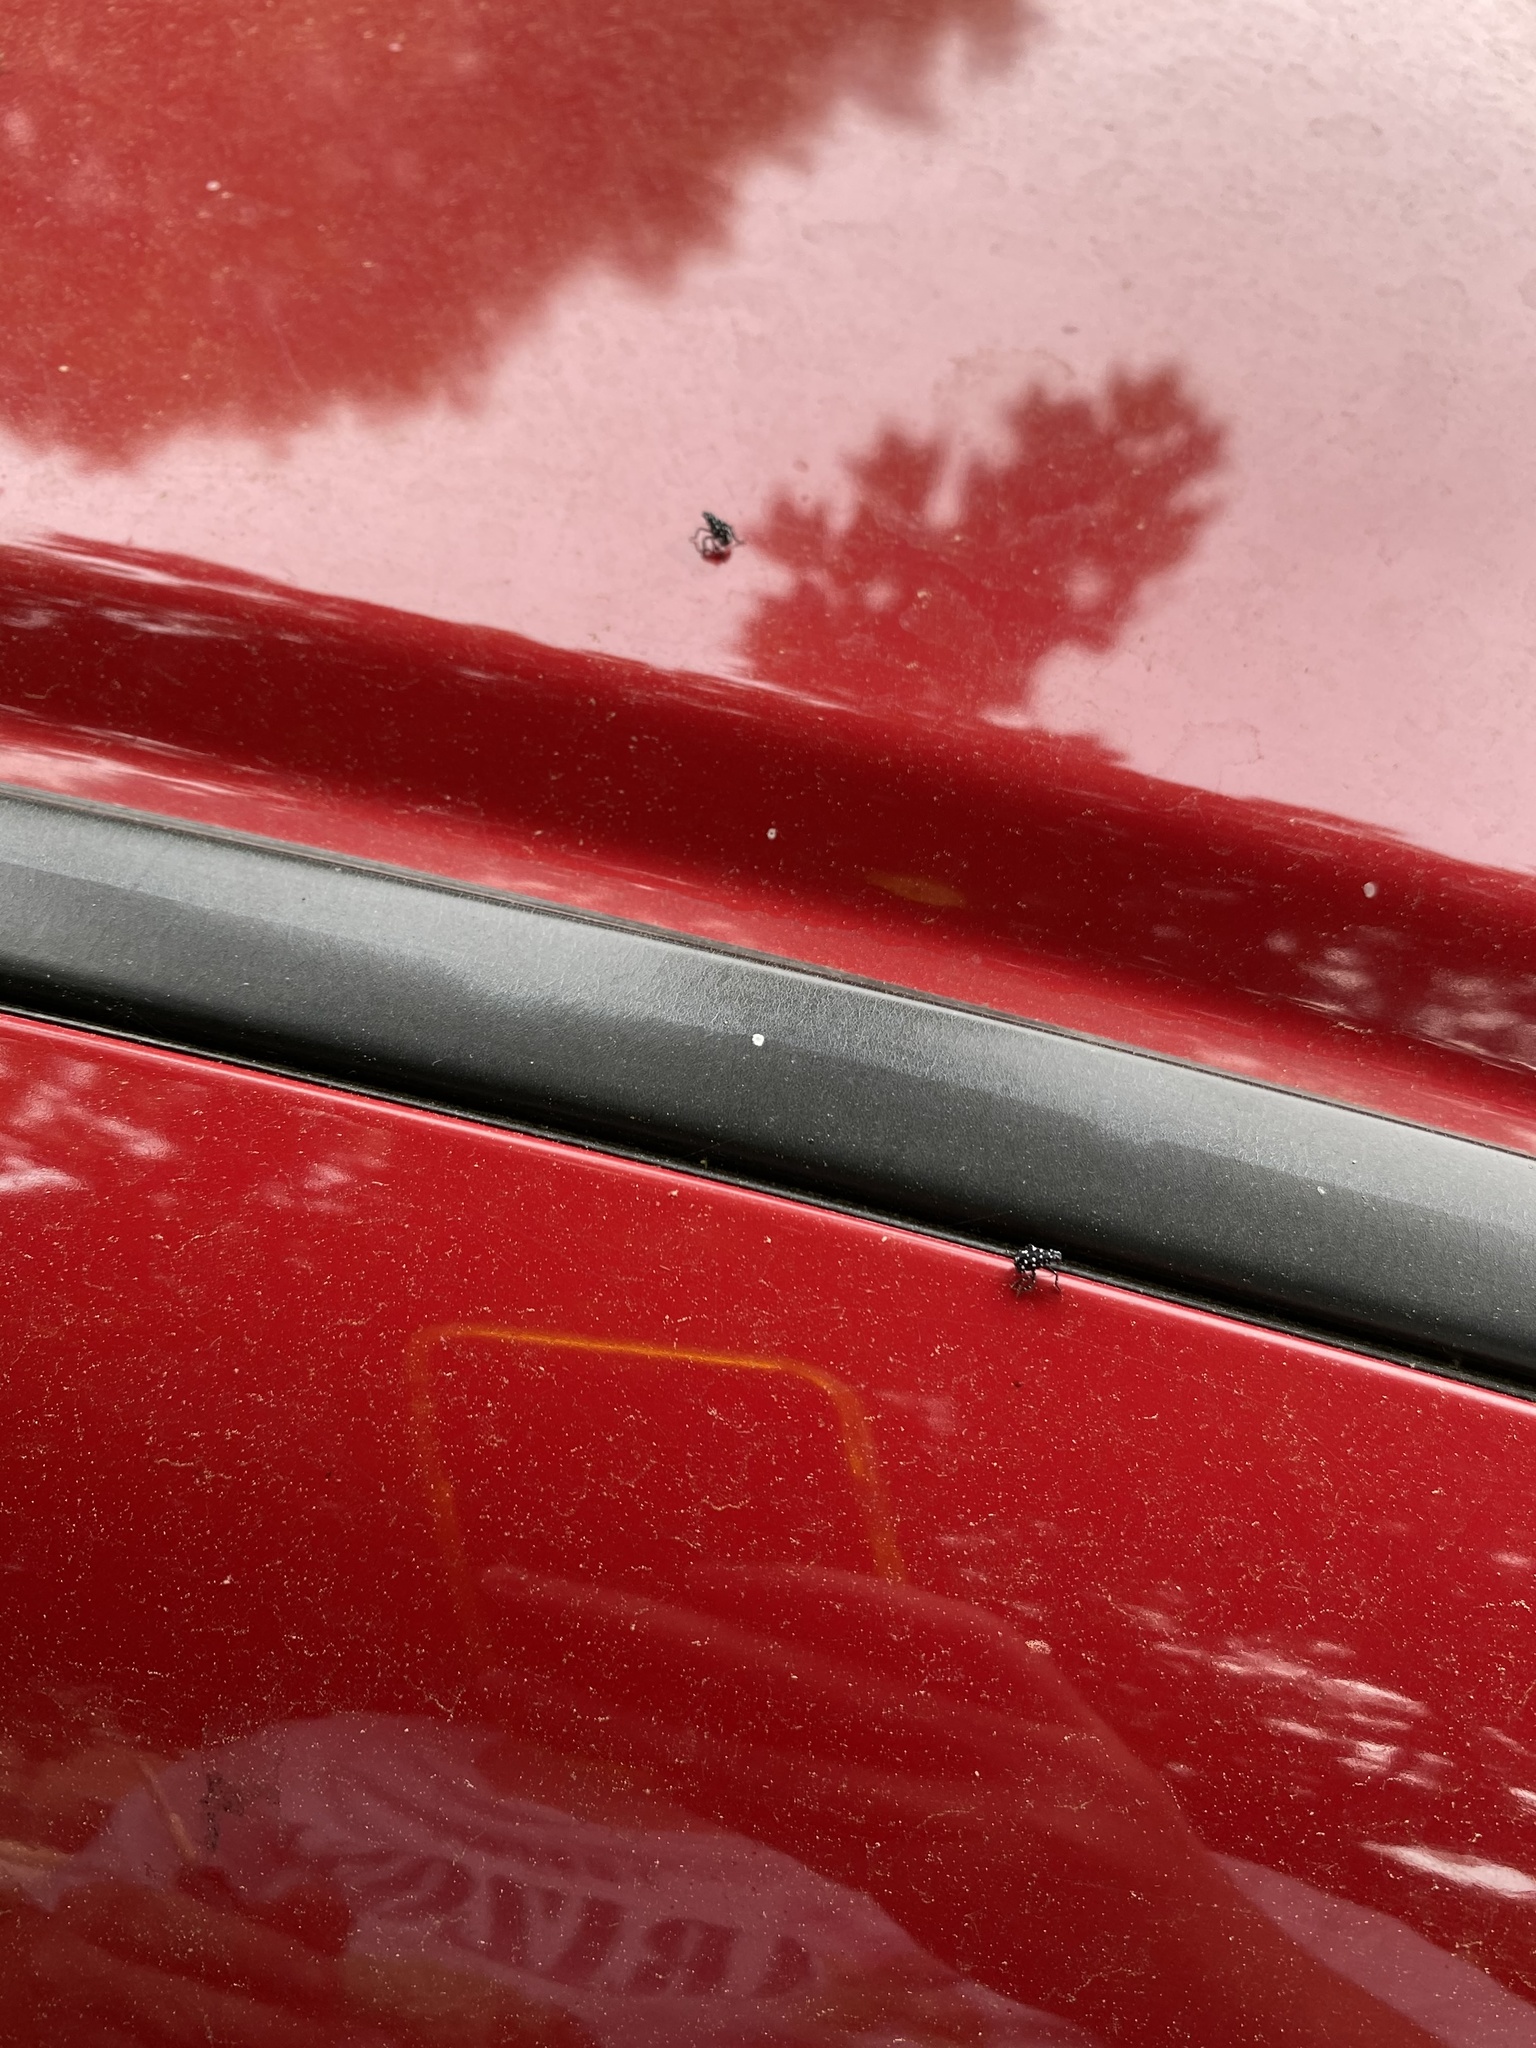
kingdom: Animalia
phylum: Arthropoda
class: Insecta
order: Hemiptera
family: Fulgoridae
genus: Lycorma
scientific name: Lycorma delicatula
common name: Spotted lanternfly
